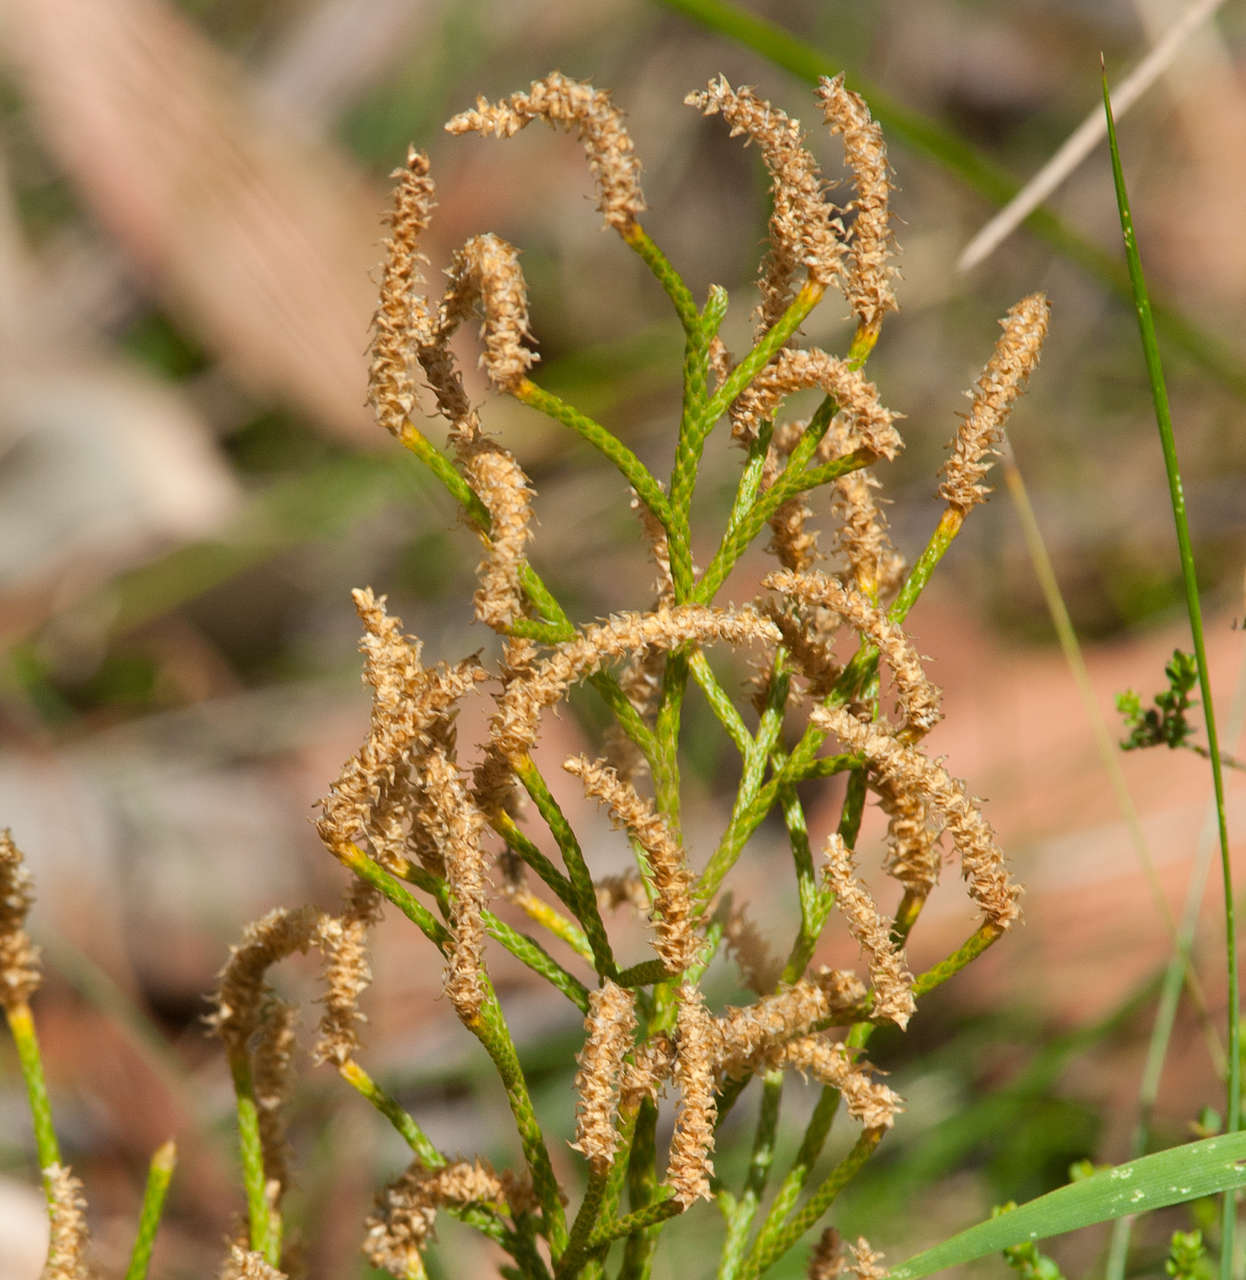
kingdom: Plantae
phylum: Tracheophyta
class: Lycopodiopsida
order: Lycopodiales
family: Lycopodiaceae
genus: Pseudolycopodium
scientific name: Pseudolycopodium densum
